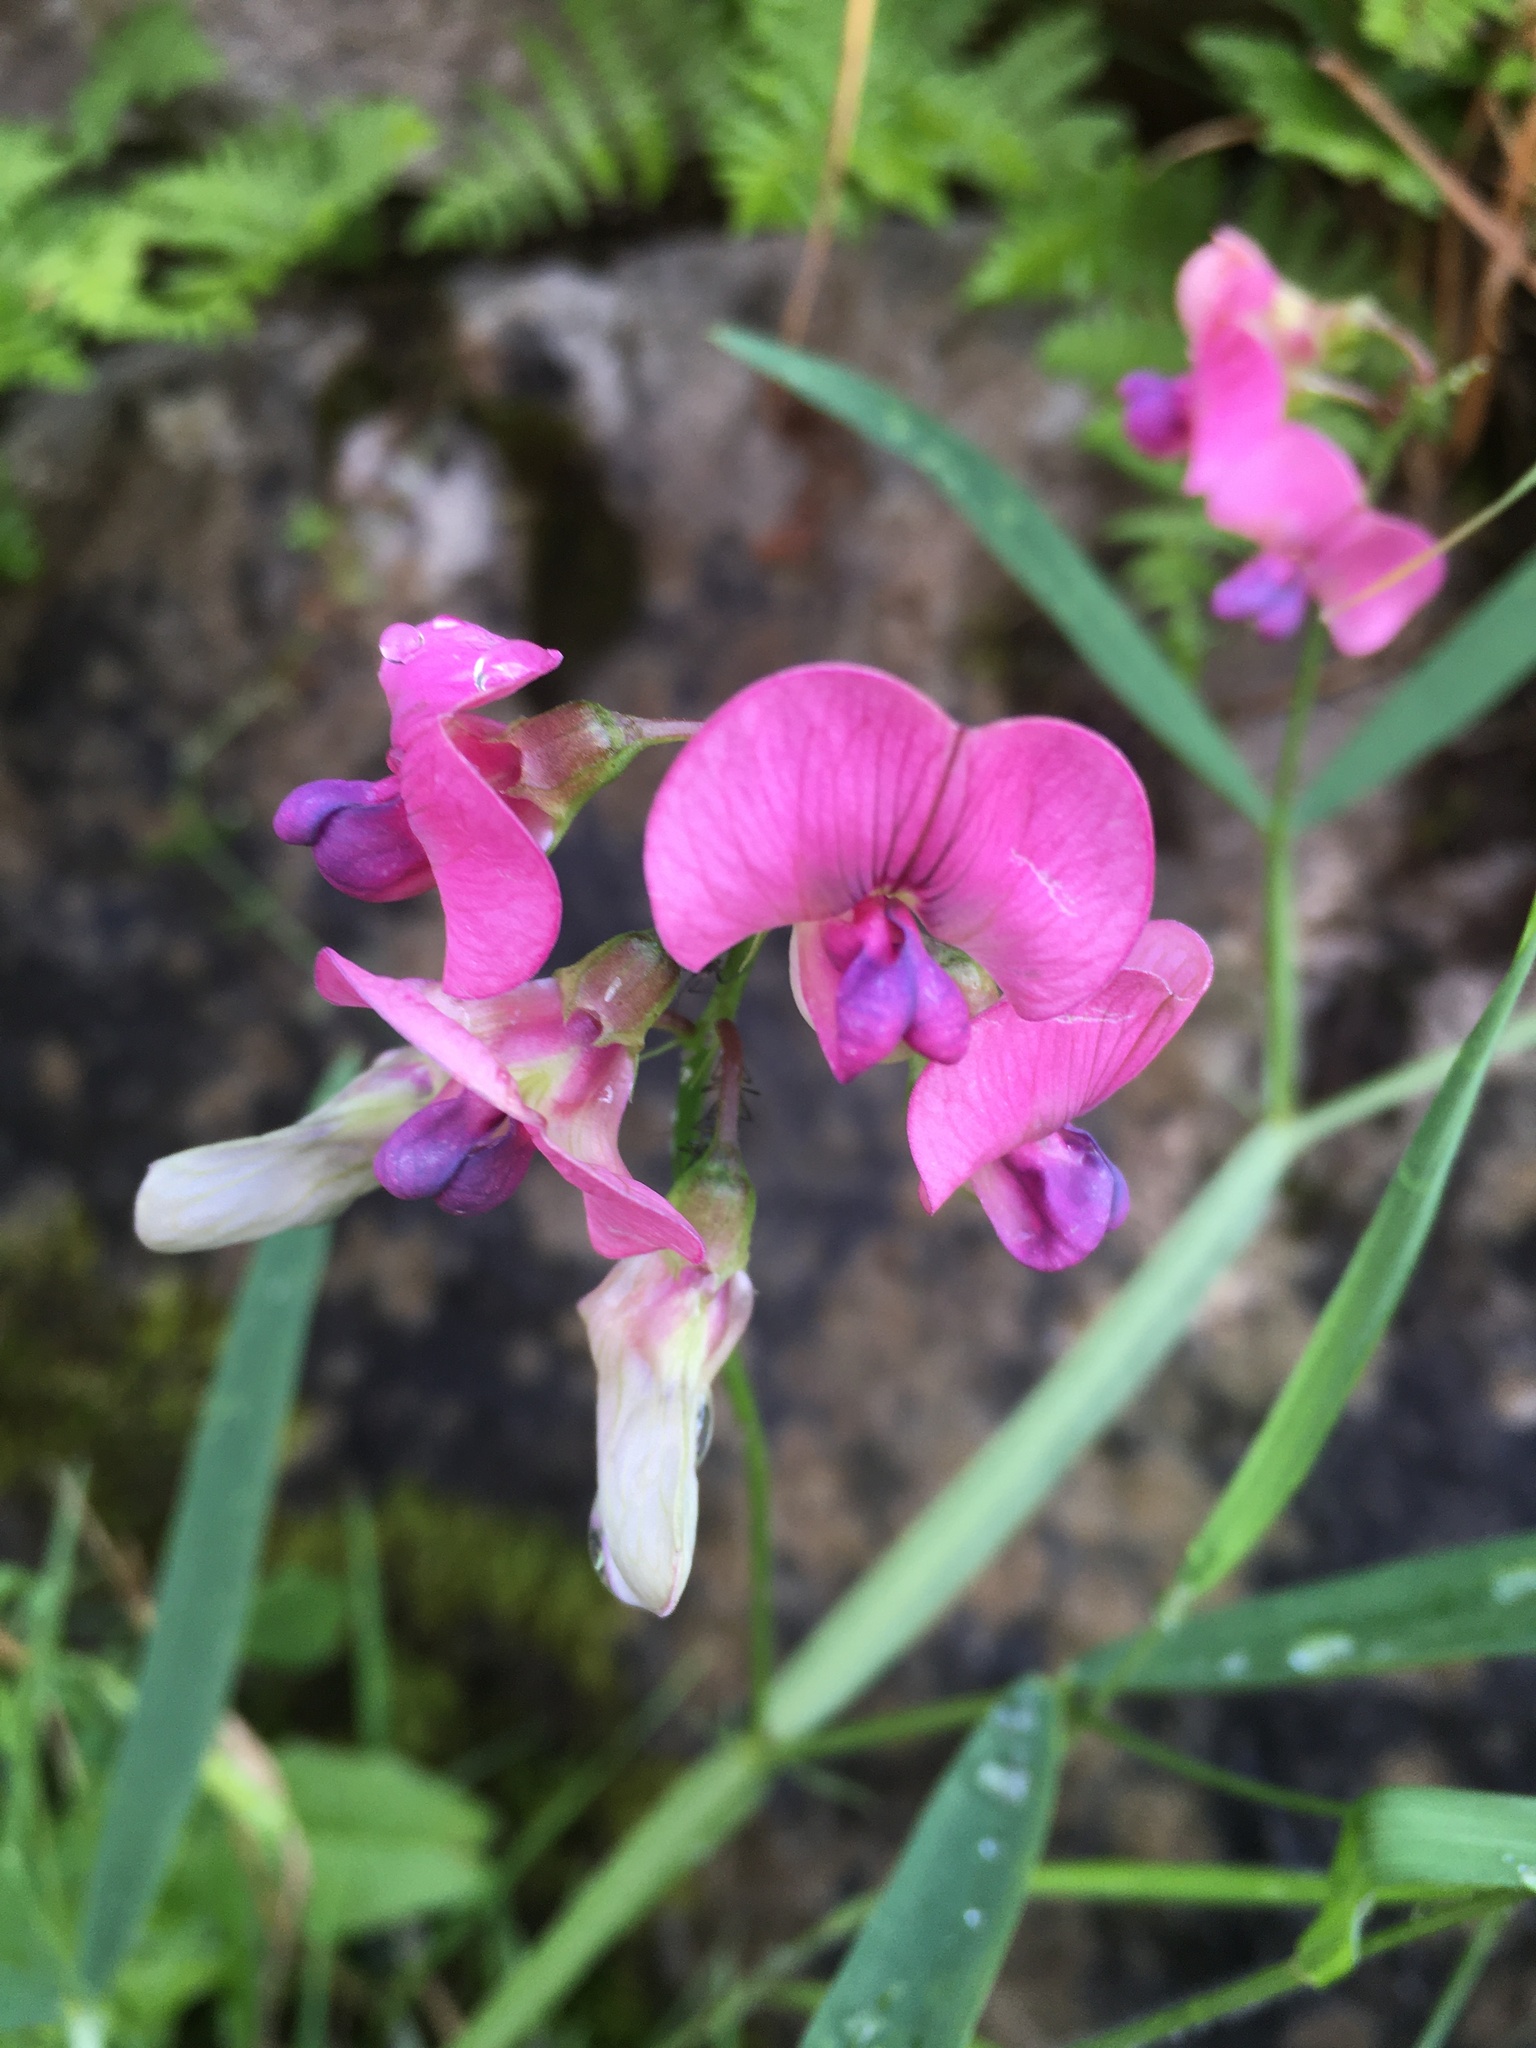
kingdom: Plantae
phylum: Tracheophyta
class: Magnoliopsida
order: Fabales
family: Fabaceae
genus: Lathyrus
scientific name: Lathyrus sylvestris
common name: Flat pea
